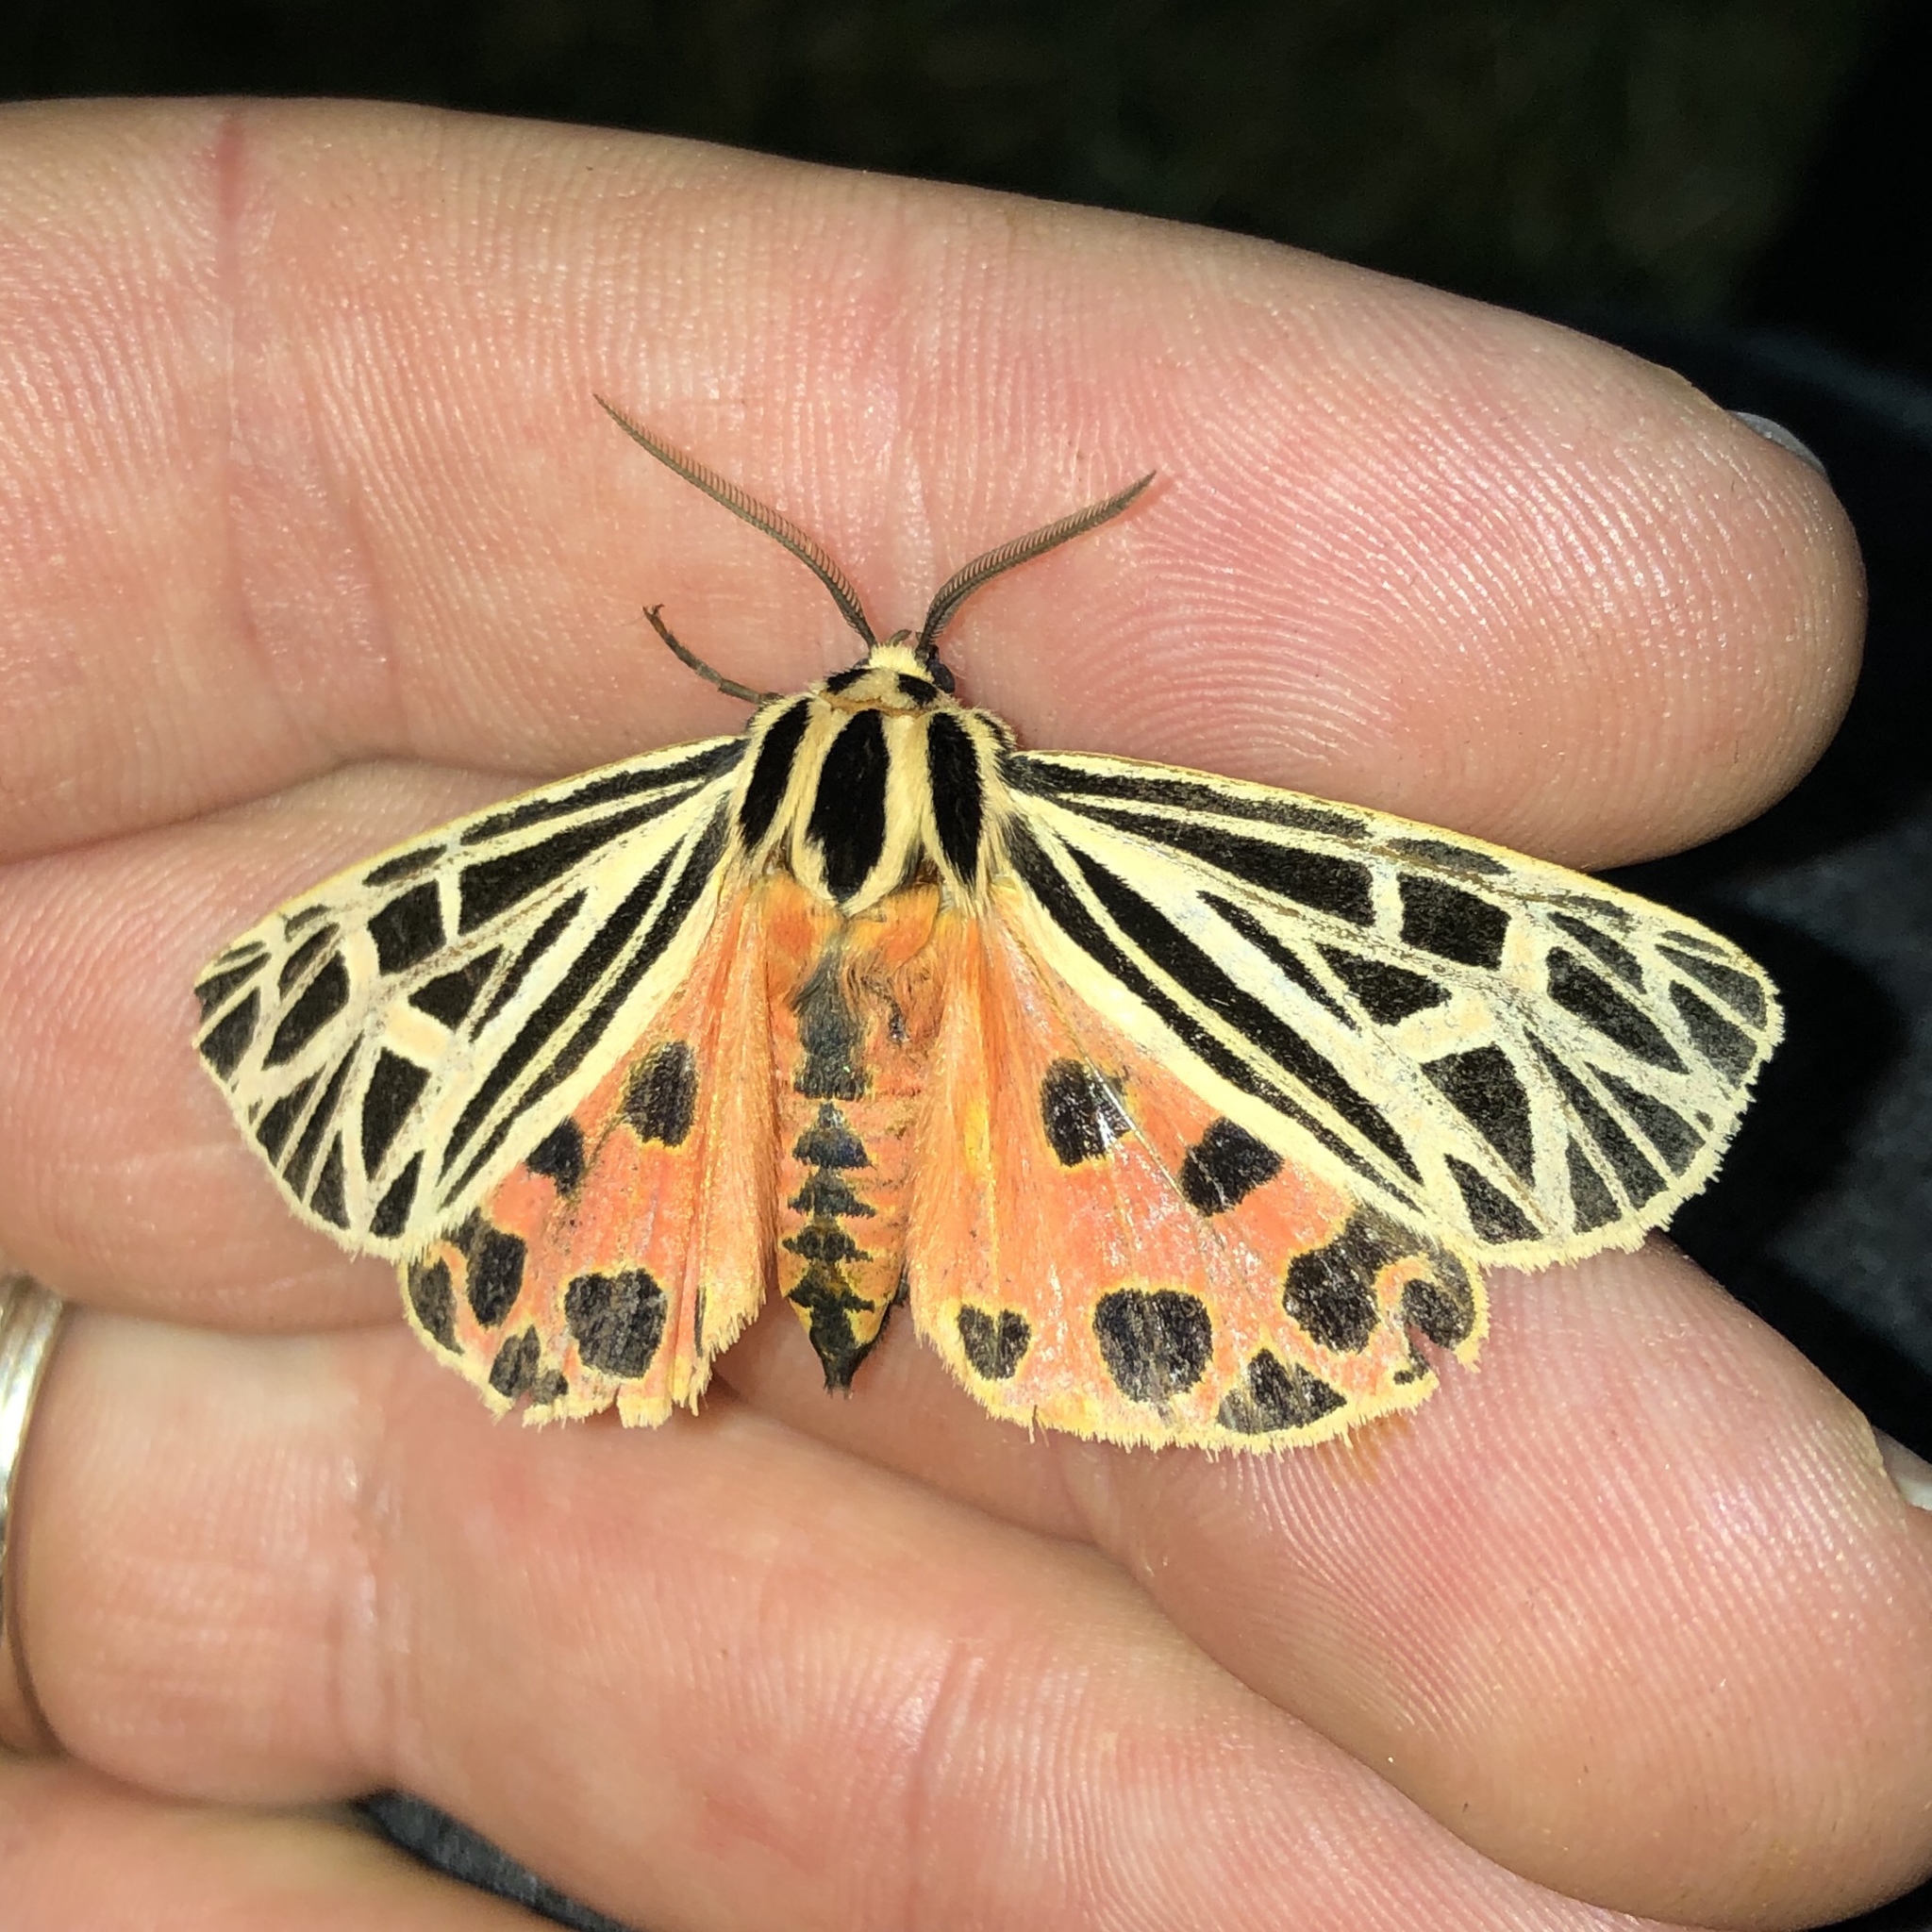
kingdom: Animalia
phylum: Arthropoda
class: Insecta
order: Lepidoptera
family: Erebidae
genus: Grammia
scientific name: Grammia virgo
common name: Virgin tiger moth
